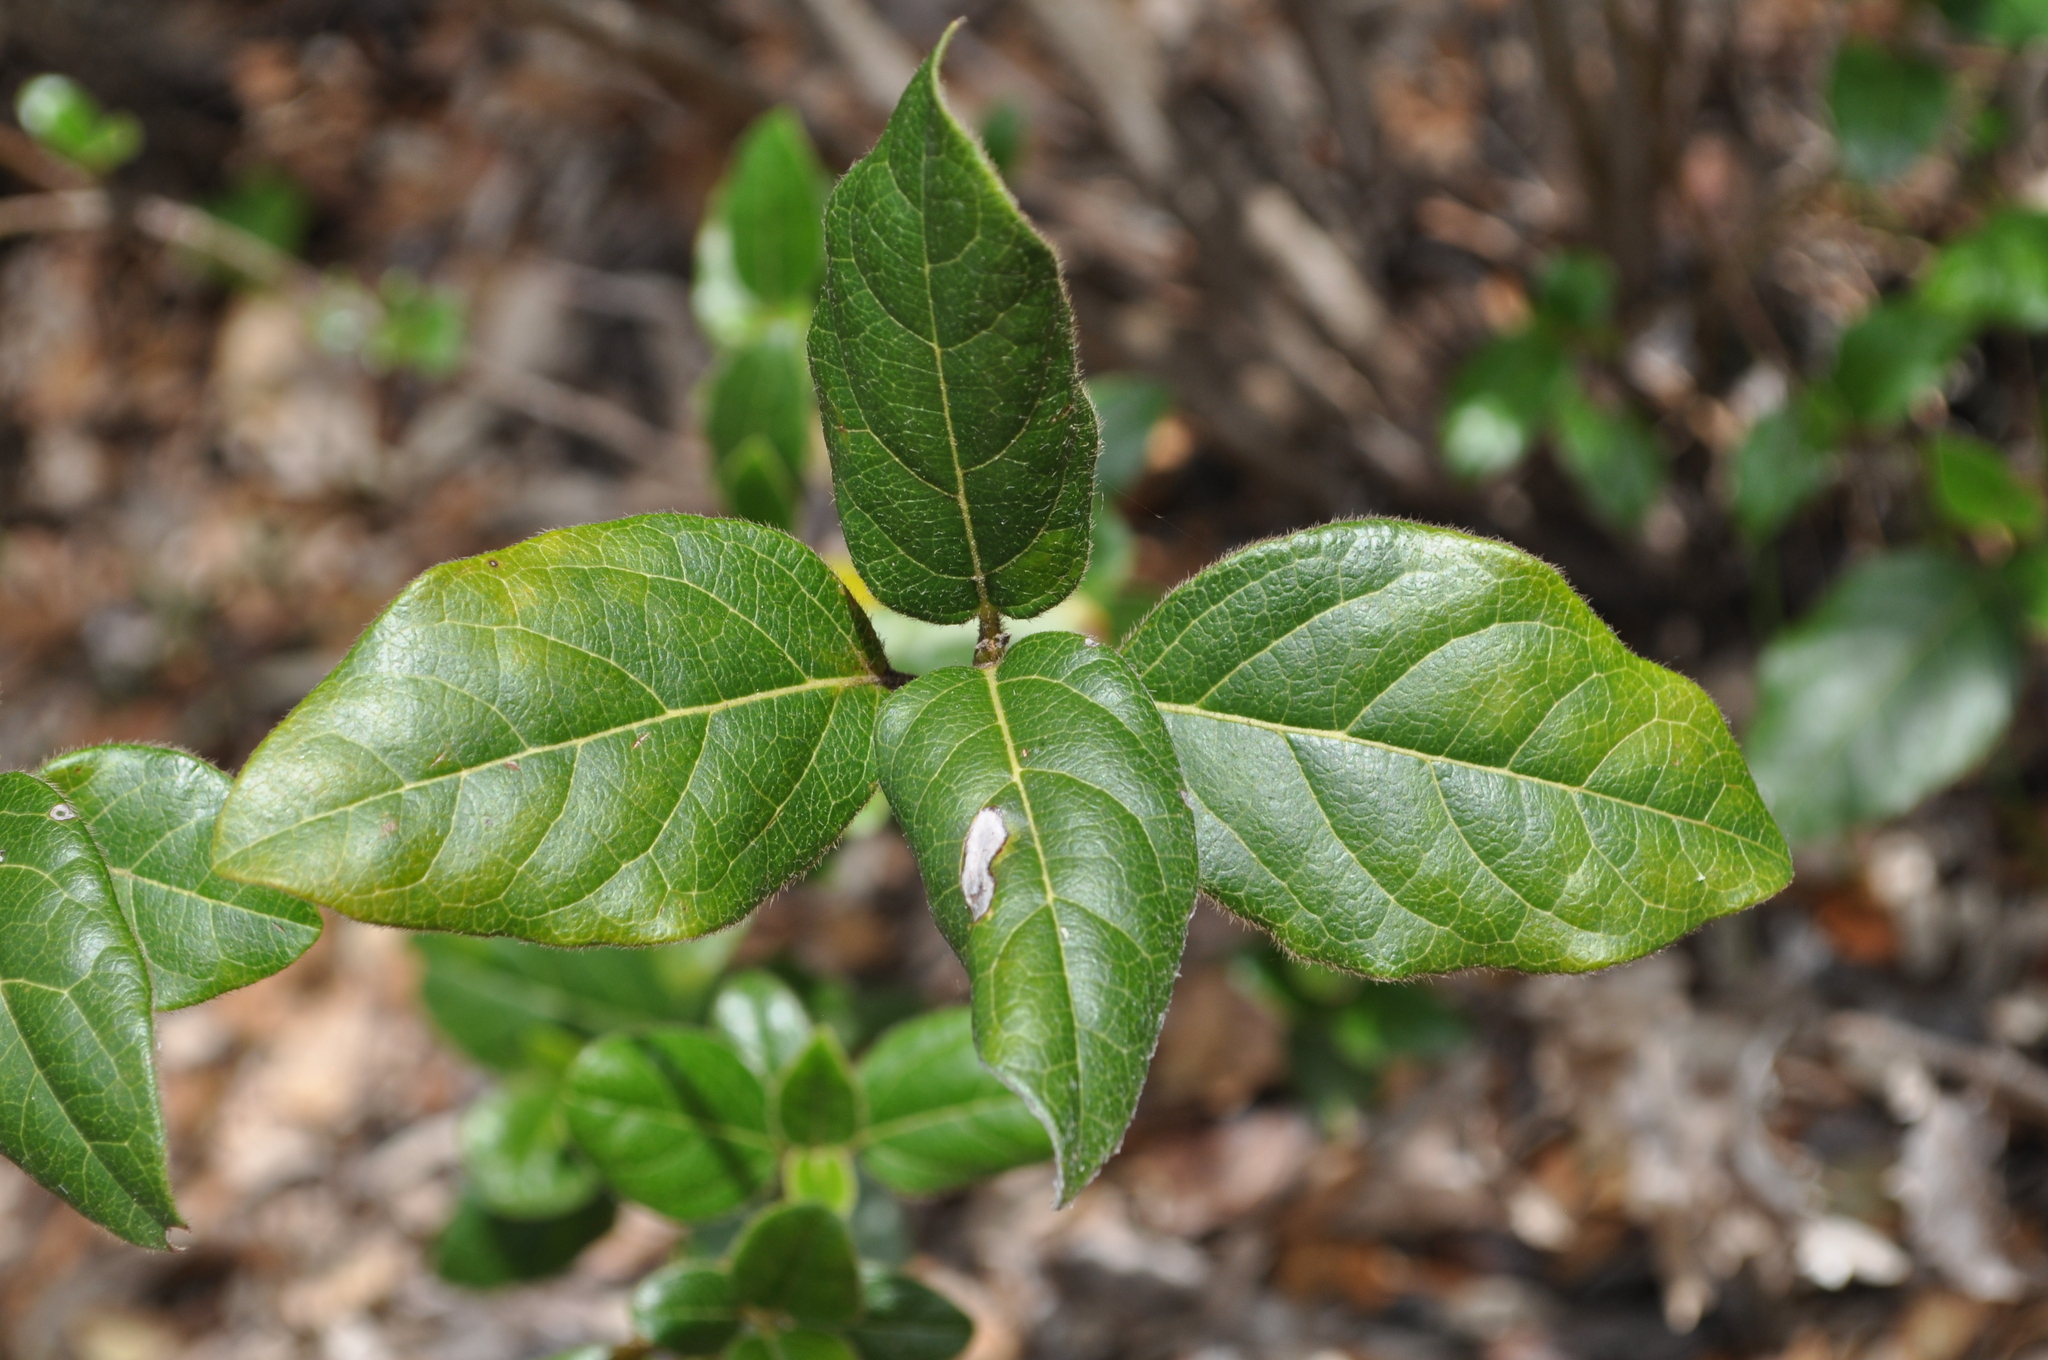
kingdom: Plantae
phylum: Tracheophyta
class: Magnoliopsida
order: Dipsacales
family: Viburnaceae
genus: Viburnum
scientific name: Viburnum tinus
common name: Laurustinus
